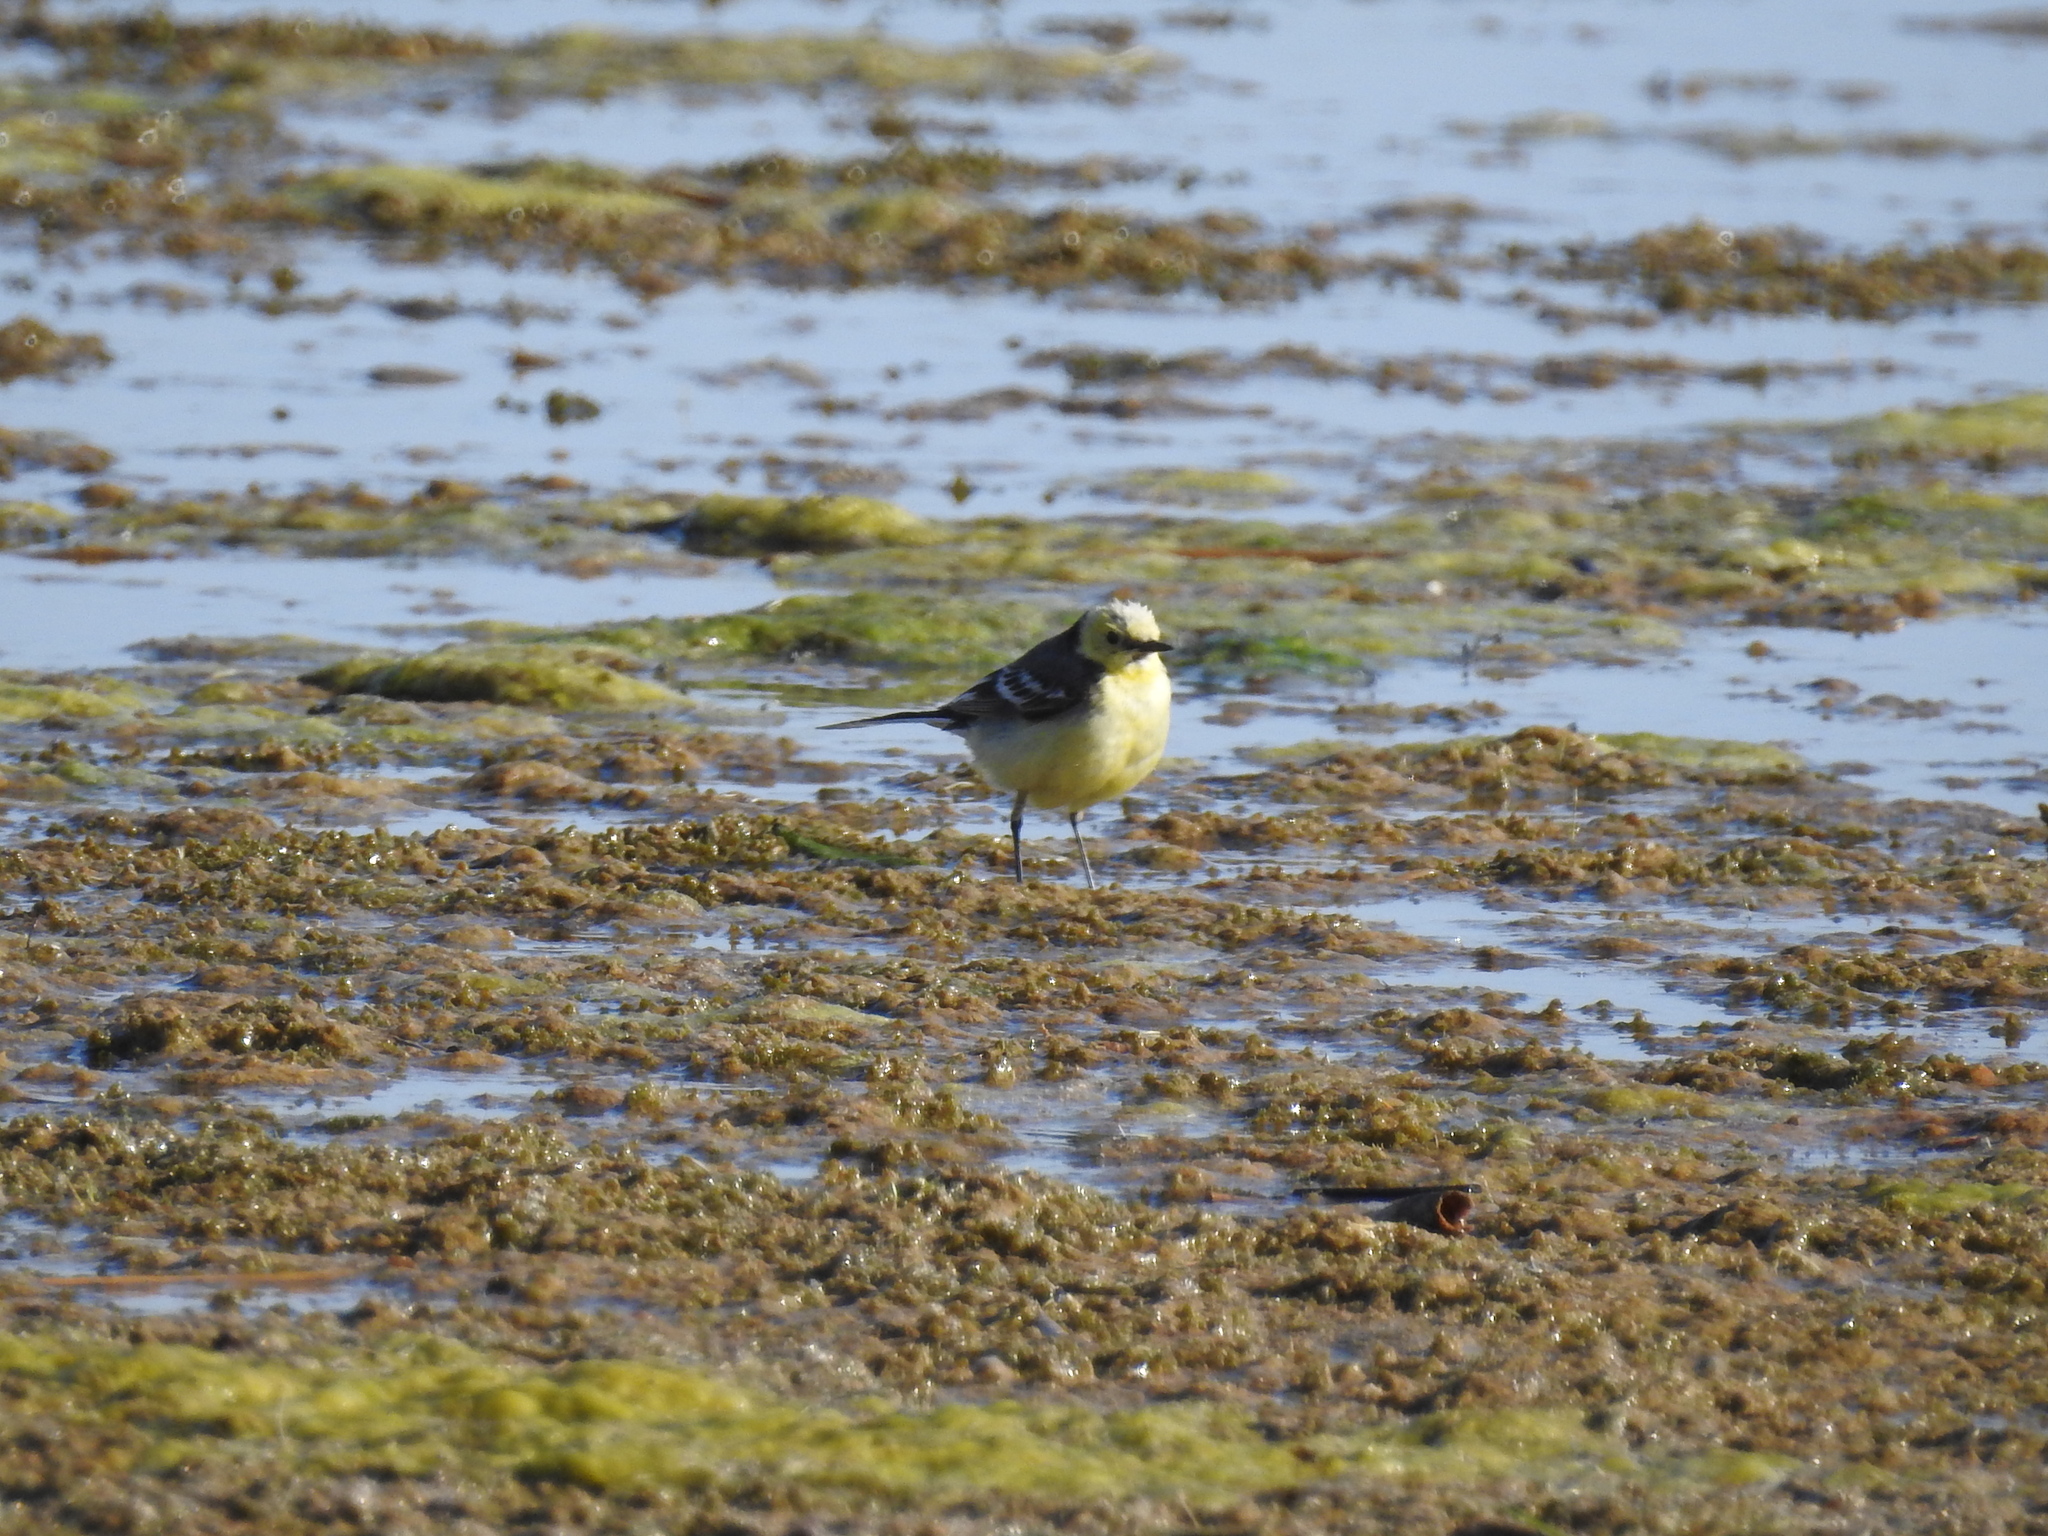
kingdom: Animalia
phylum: Chordata
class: Aves
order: Passeriformes
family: Motacillidae
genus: Motacilla
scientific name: Motacilla citreola
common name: Citrine wagtail
